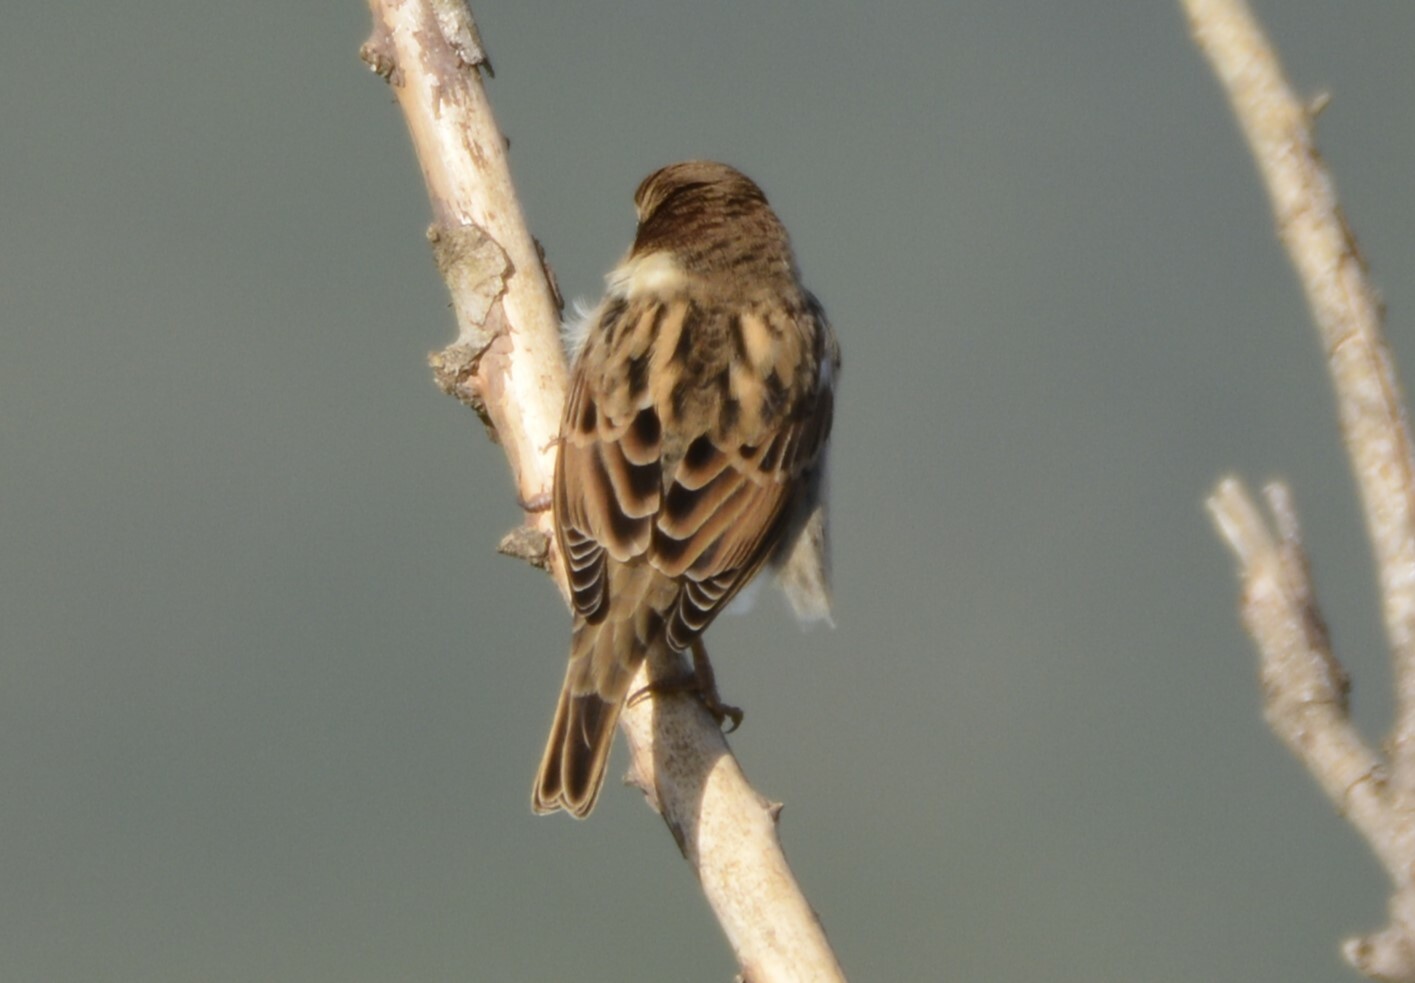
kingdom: Animalia
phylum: Chordata
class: Aves
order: Passeriformes
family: Passeridae
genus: Passer
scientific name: Passer hispaniolensis
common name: Spanish sparrow
